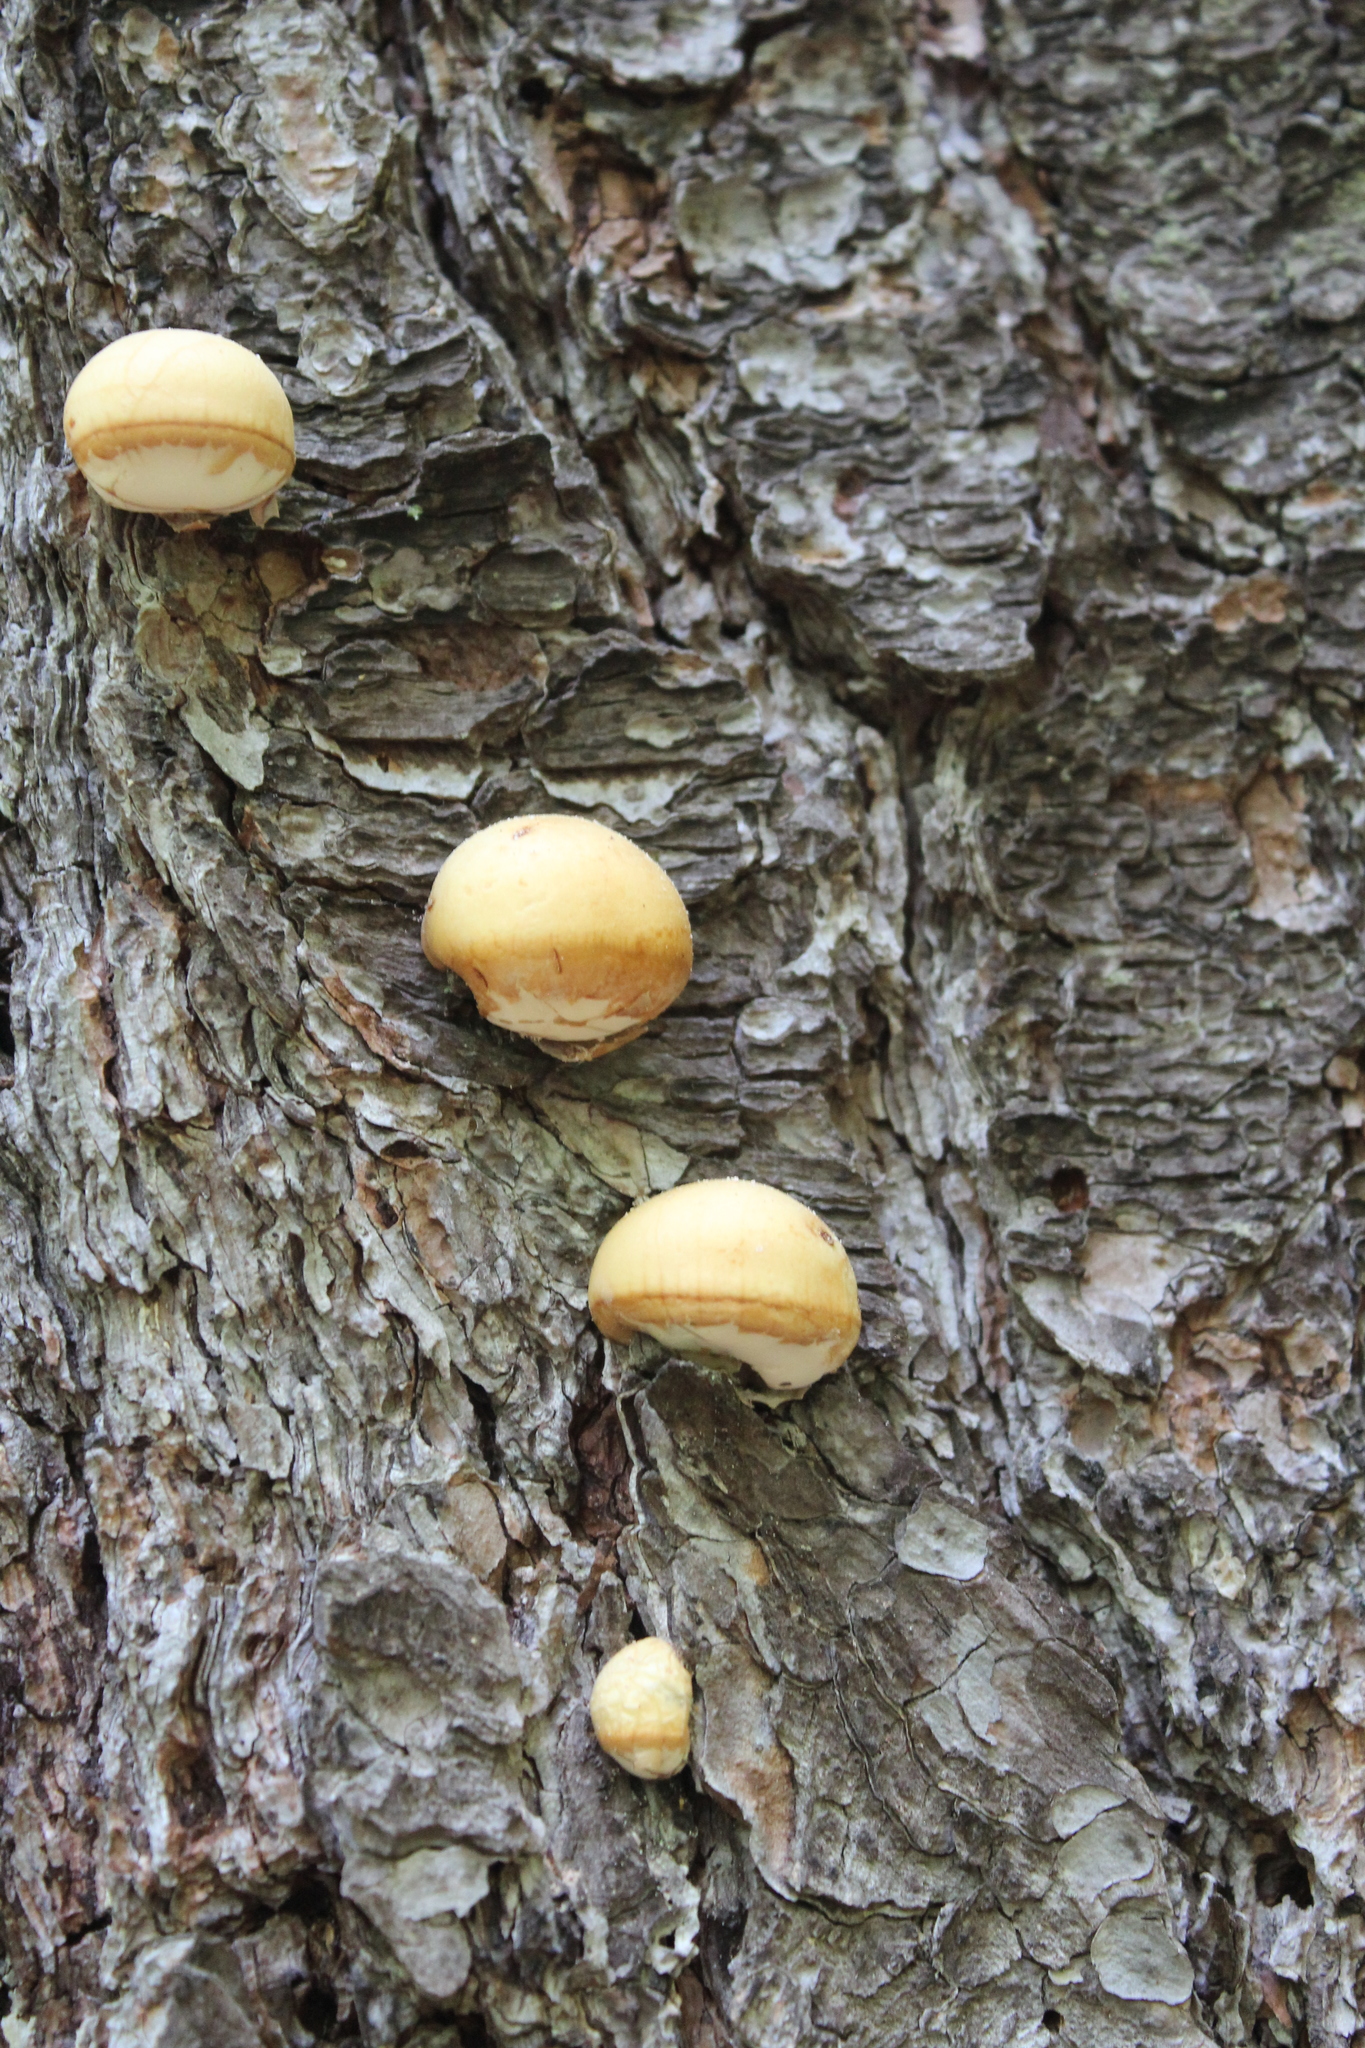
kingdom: Fungi
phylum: Basidiomycota
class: Agaricomycetes
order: Polyporales
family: Polyporaceae
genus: Cryptoporus
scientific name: Cryptoporus volvatus
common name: Veiled polypore
